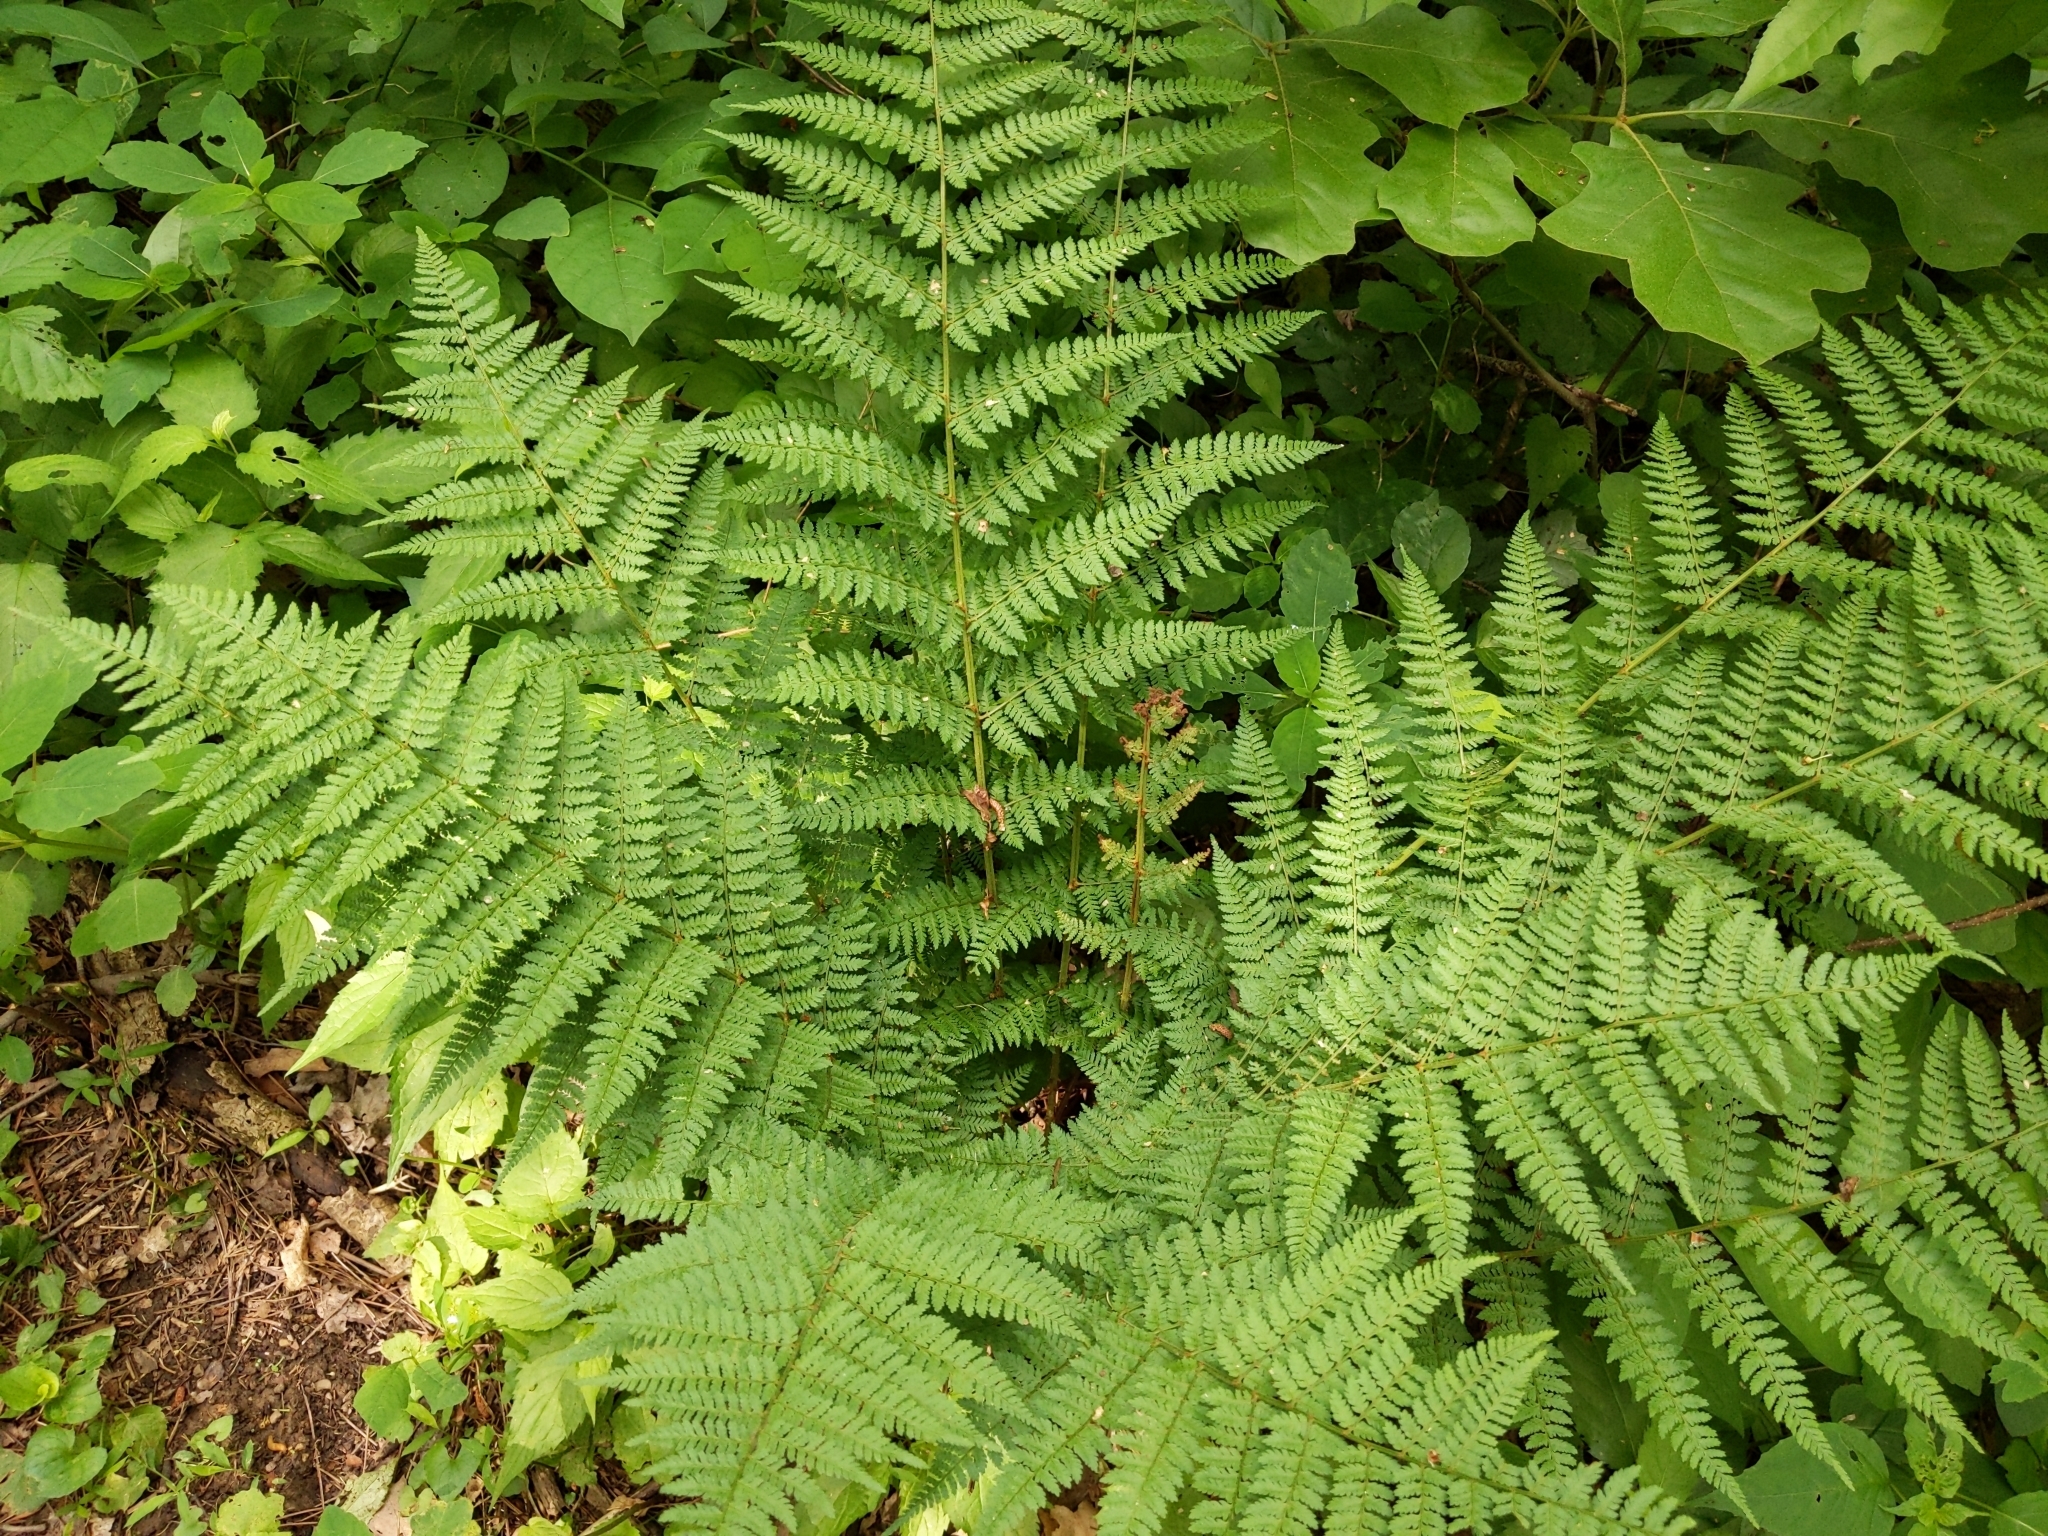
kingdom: Plantae
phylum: Tracheophyta
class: Polypodiopsida
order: Polypodiales
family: Dryopteridaceae
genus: Dryopteris
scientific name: Dryopteris intermedia
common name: Evergreen wood fern
